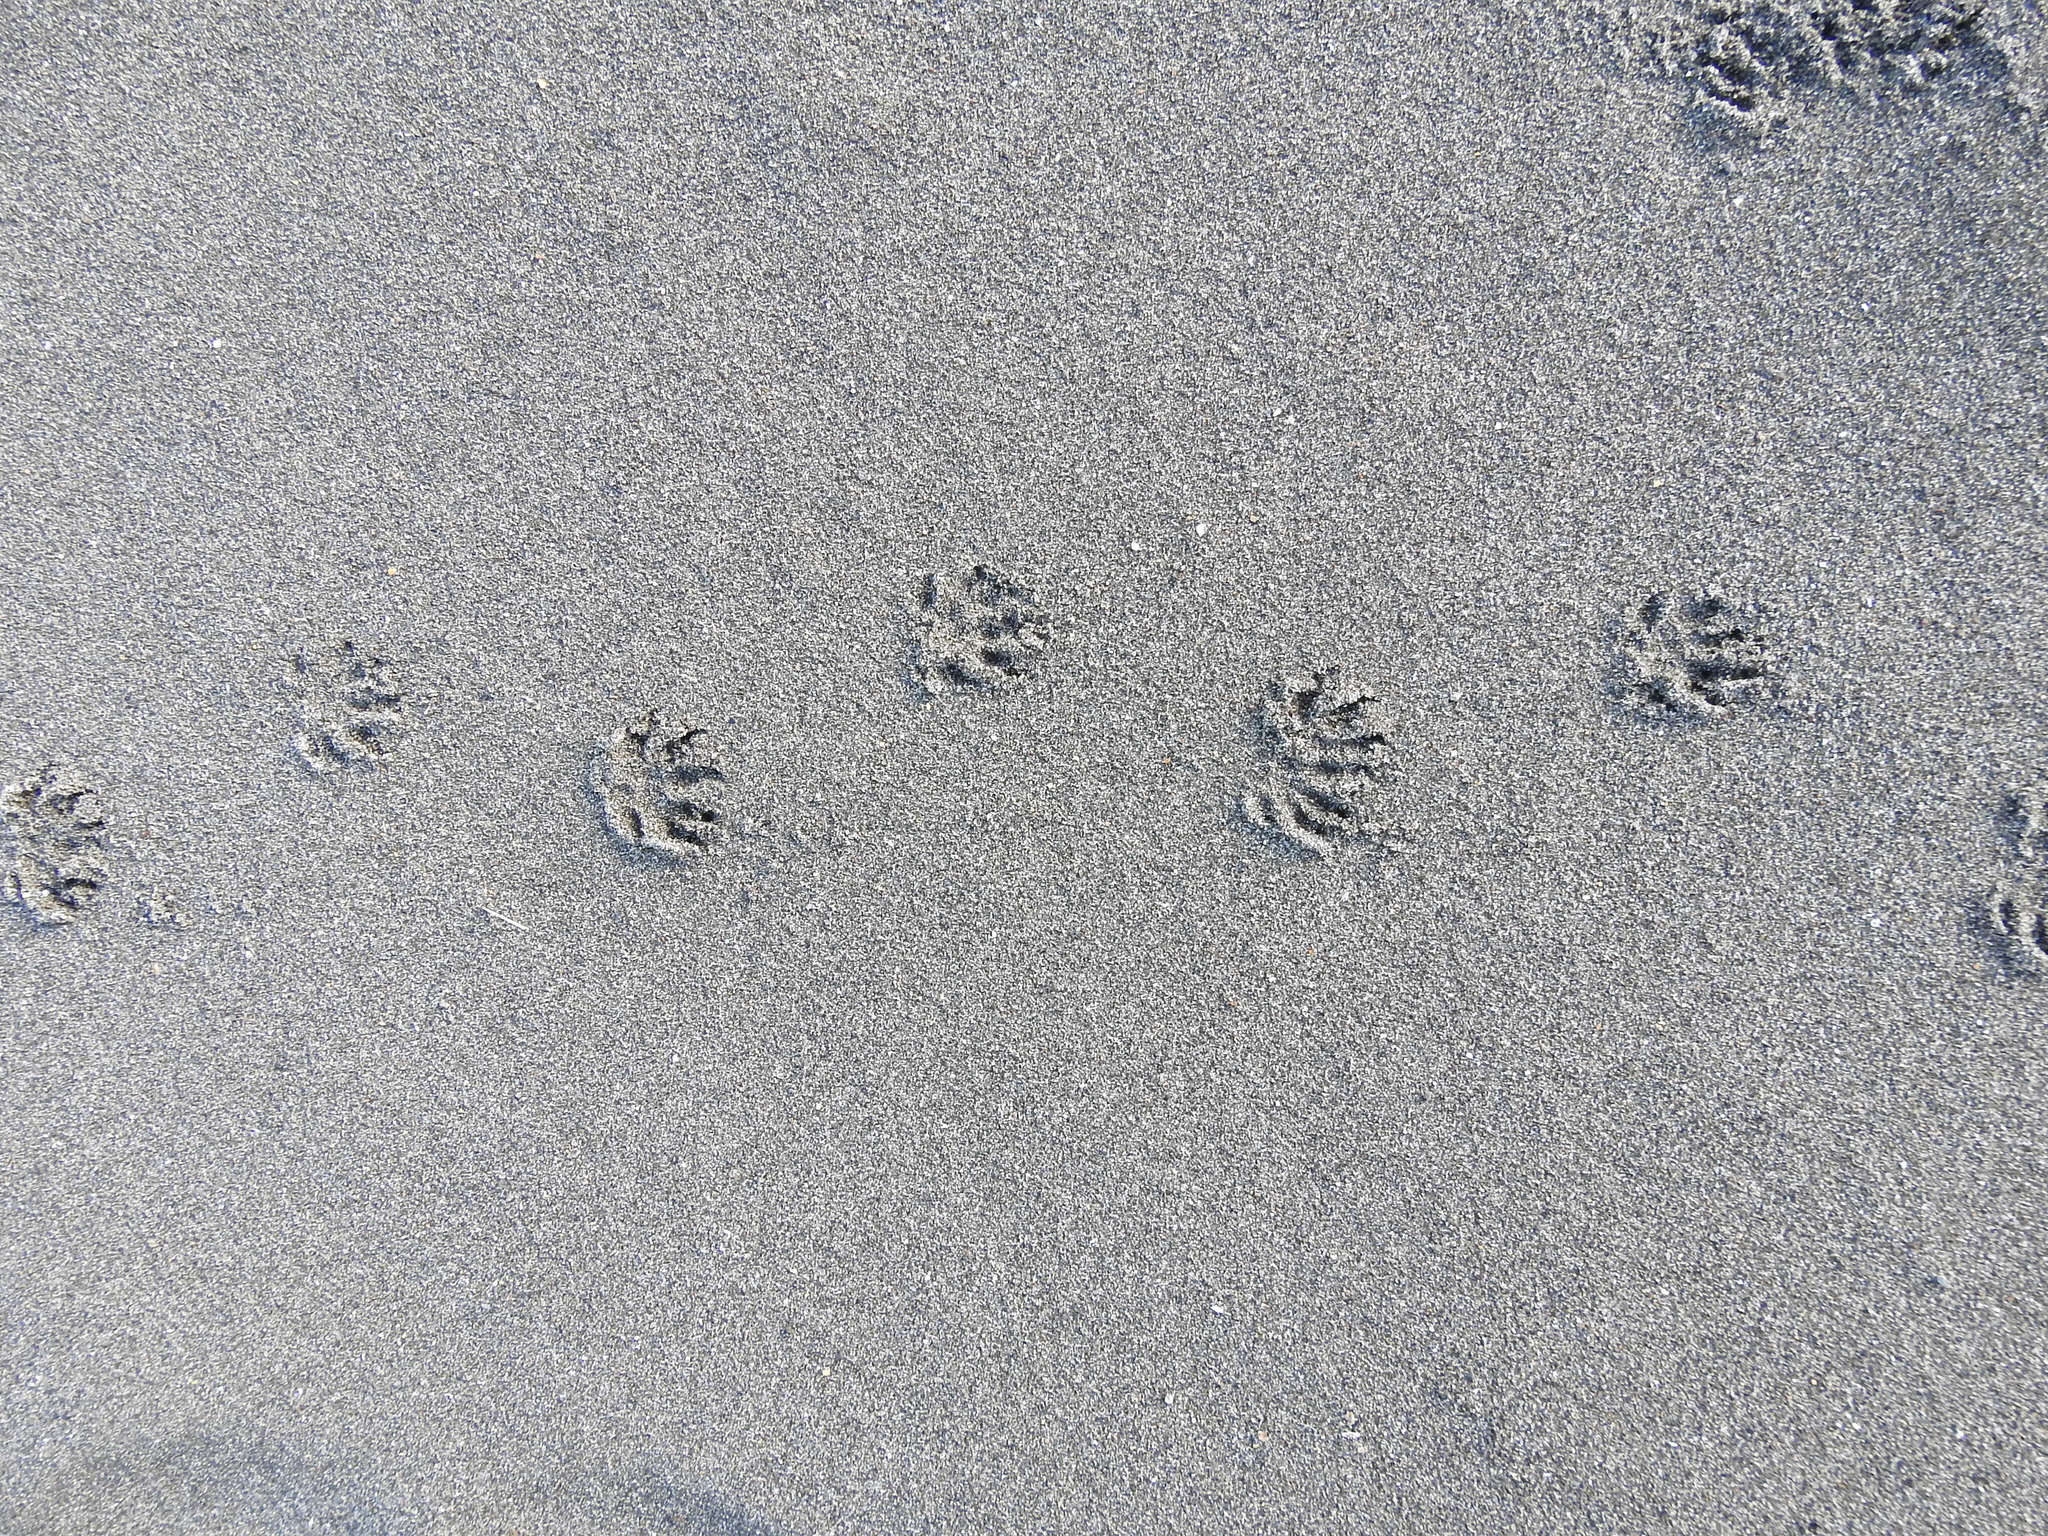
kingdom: Animalia
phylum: Chordata
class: Mammalia
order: Erinaceomorpha
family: Erinaceidae
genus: Erinaceus
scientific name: Erinaceus europaeus
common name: West european hedgehog
